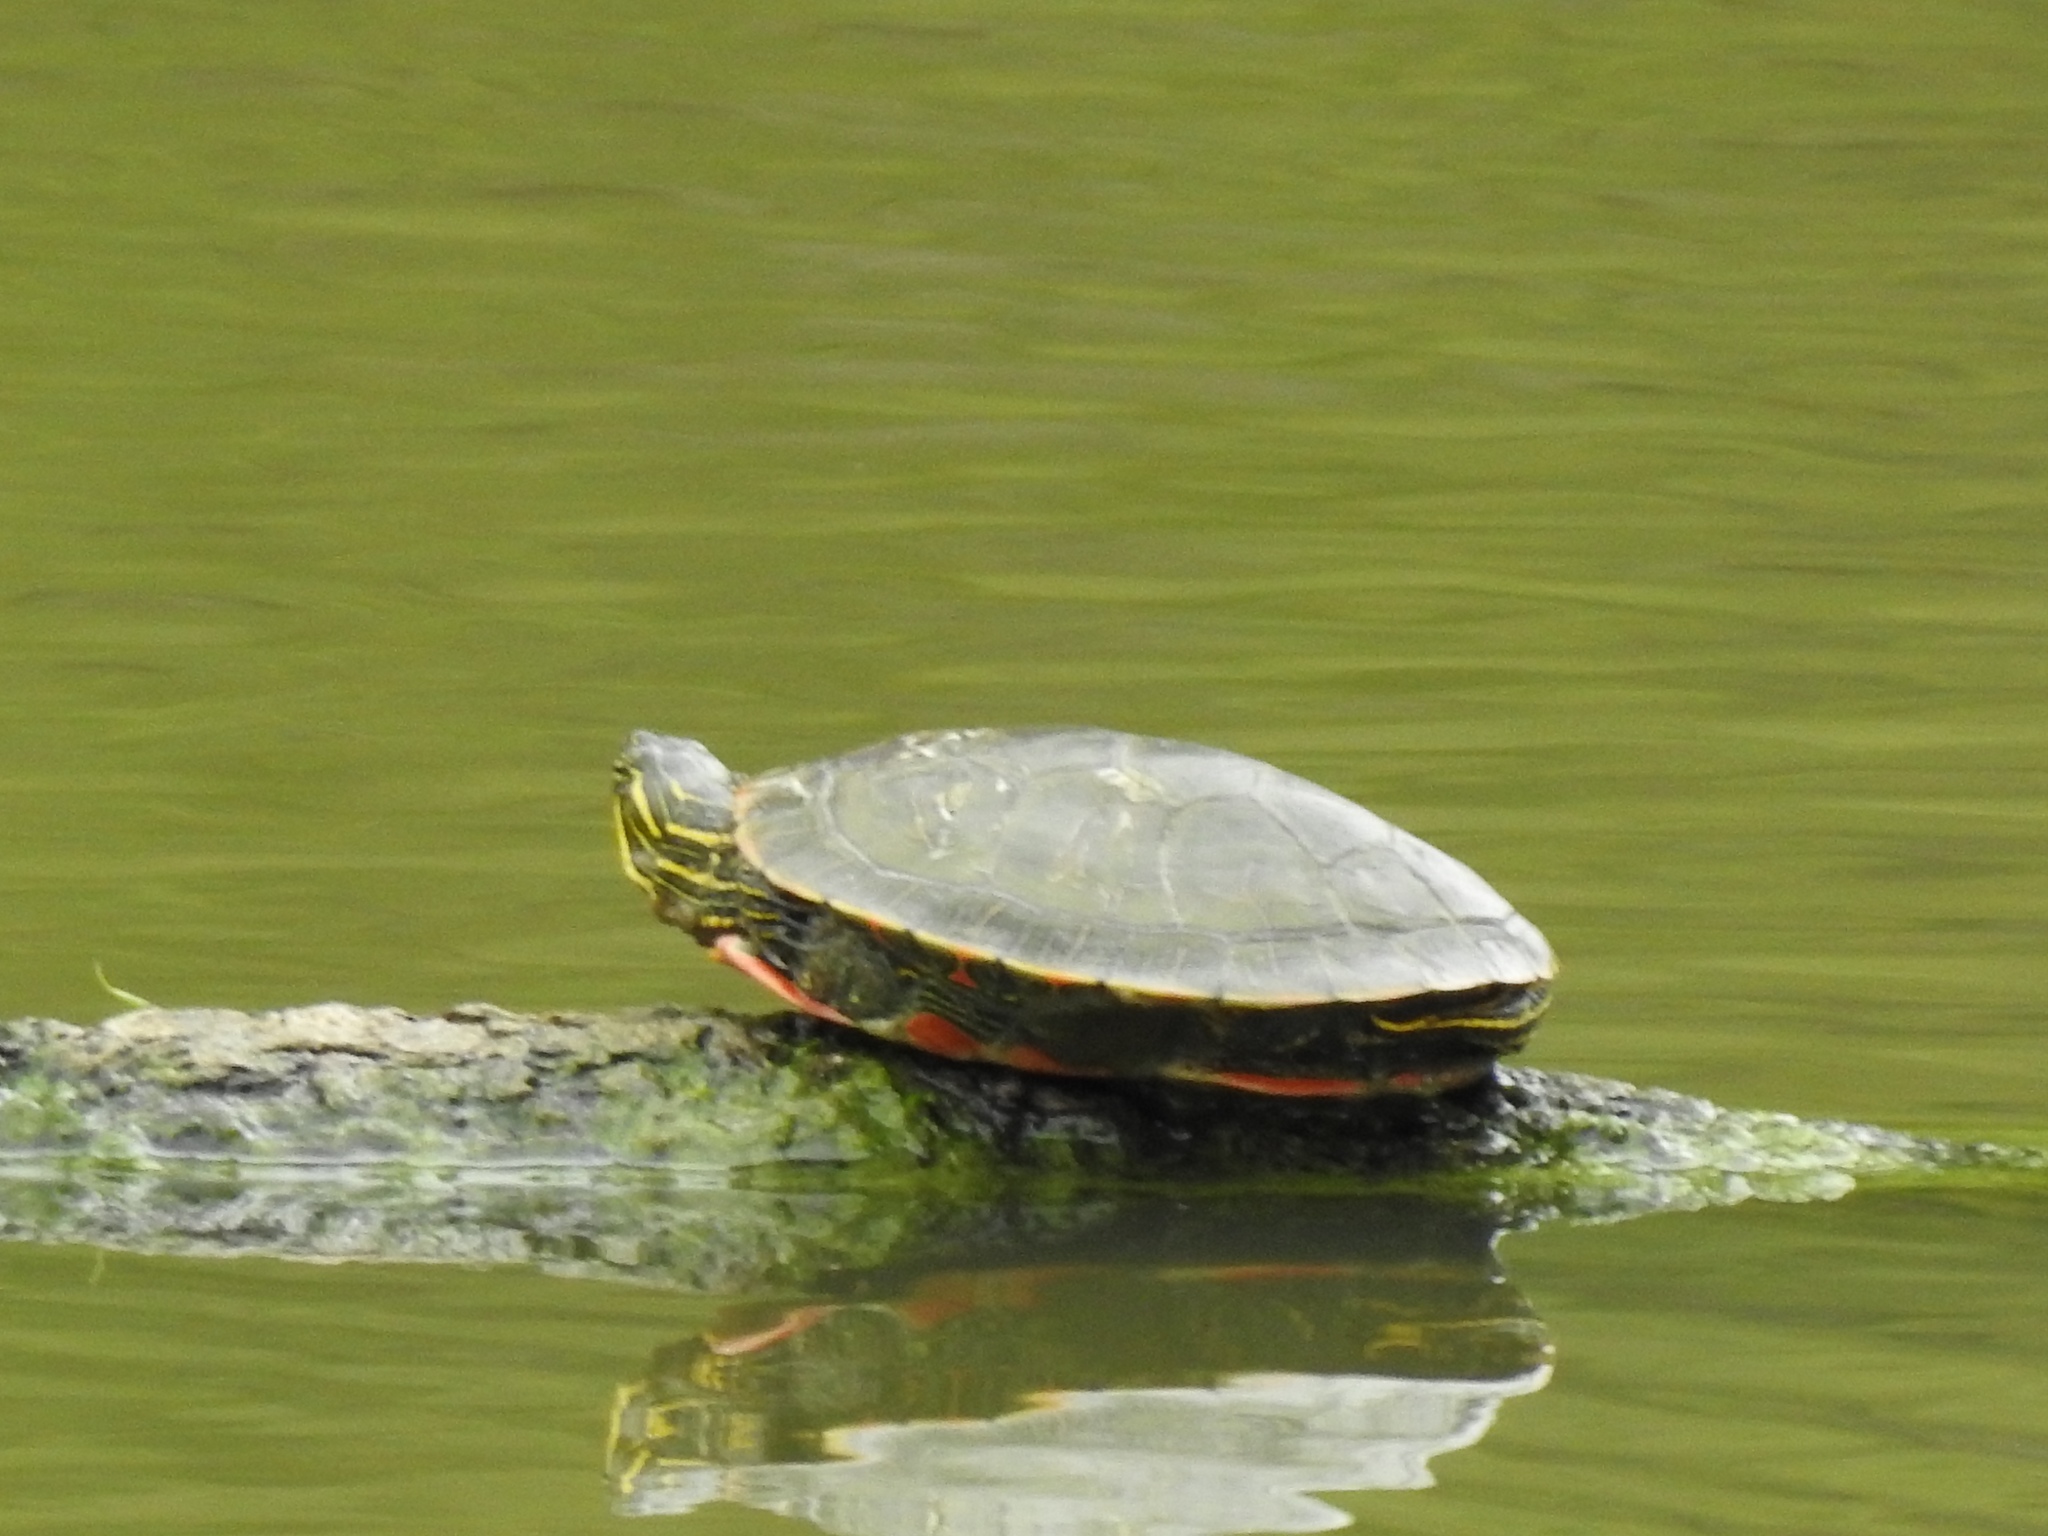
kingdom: Animalia
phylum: Chordata
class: Testudines
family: Emydidae
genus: Chrysemys
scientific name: Chrysemys picta
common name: Painted turtle
